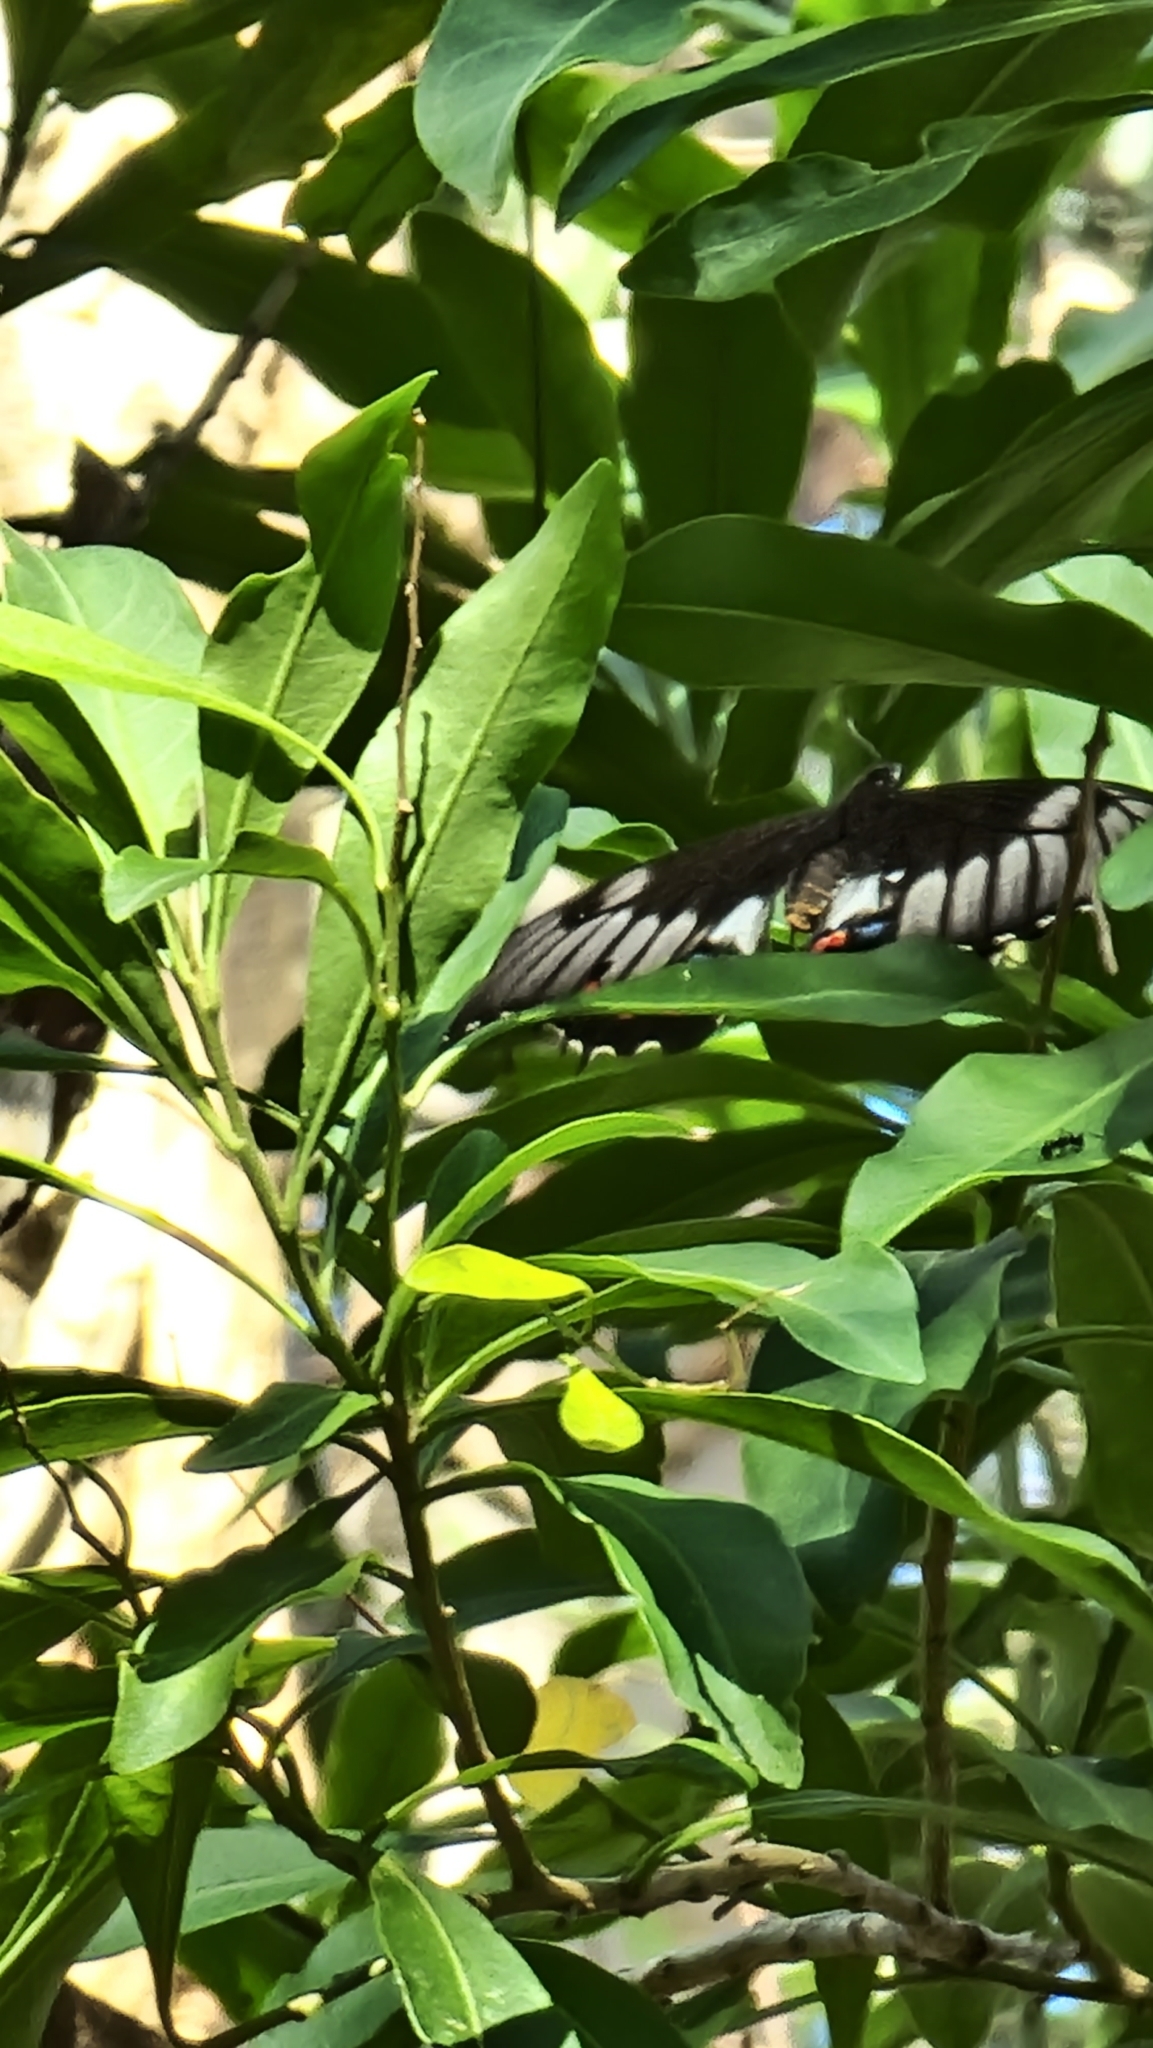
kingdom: Animalia
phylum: Arthropoda
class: Insecta
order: Lepidoptera
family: Papilionidae
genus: Papilio
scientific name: Papilio aegeus
